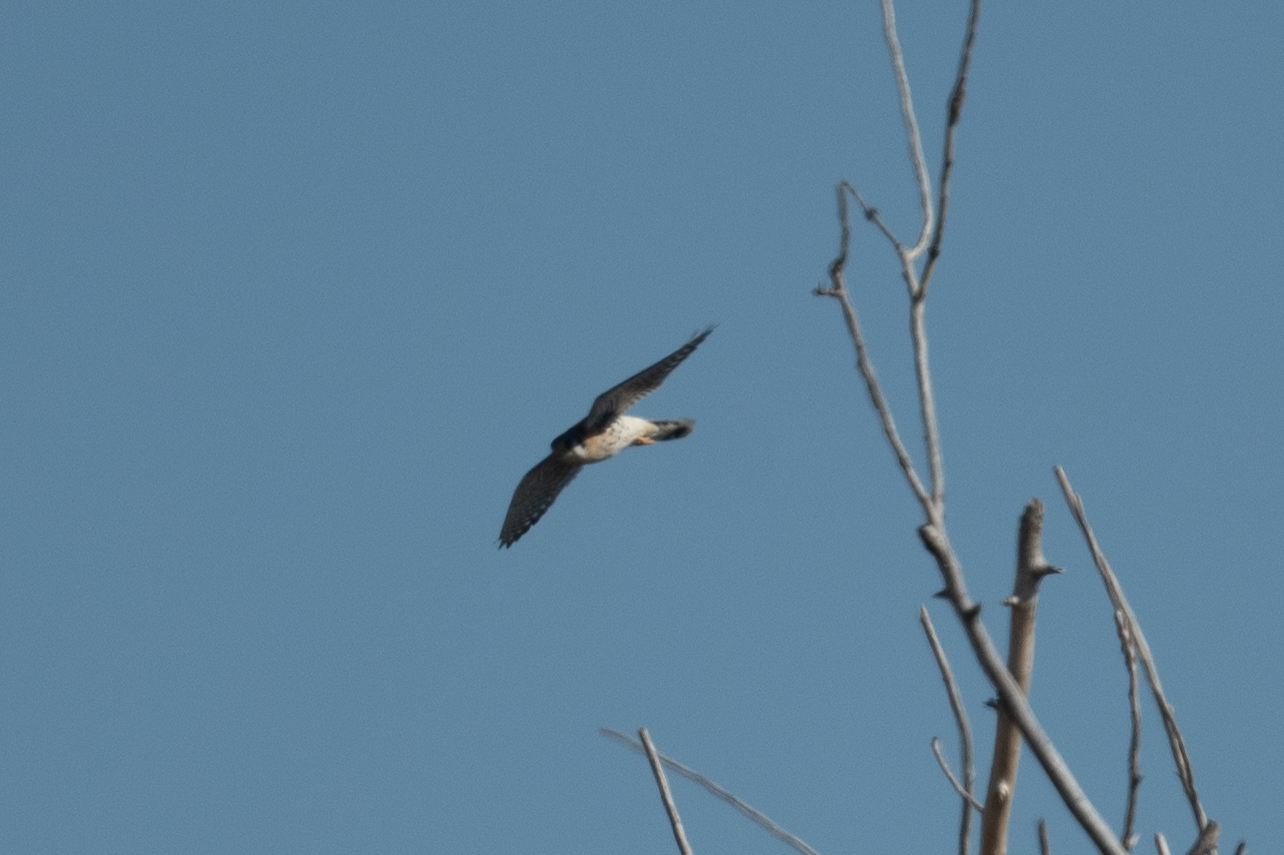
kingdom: Animalia
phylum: Chordata
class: Aves
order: Falconiformes
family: Falconidae
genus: Falco
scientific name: Falco sparverius
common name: American kestrel
